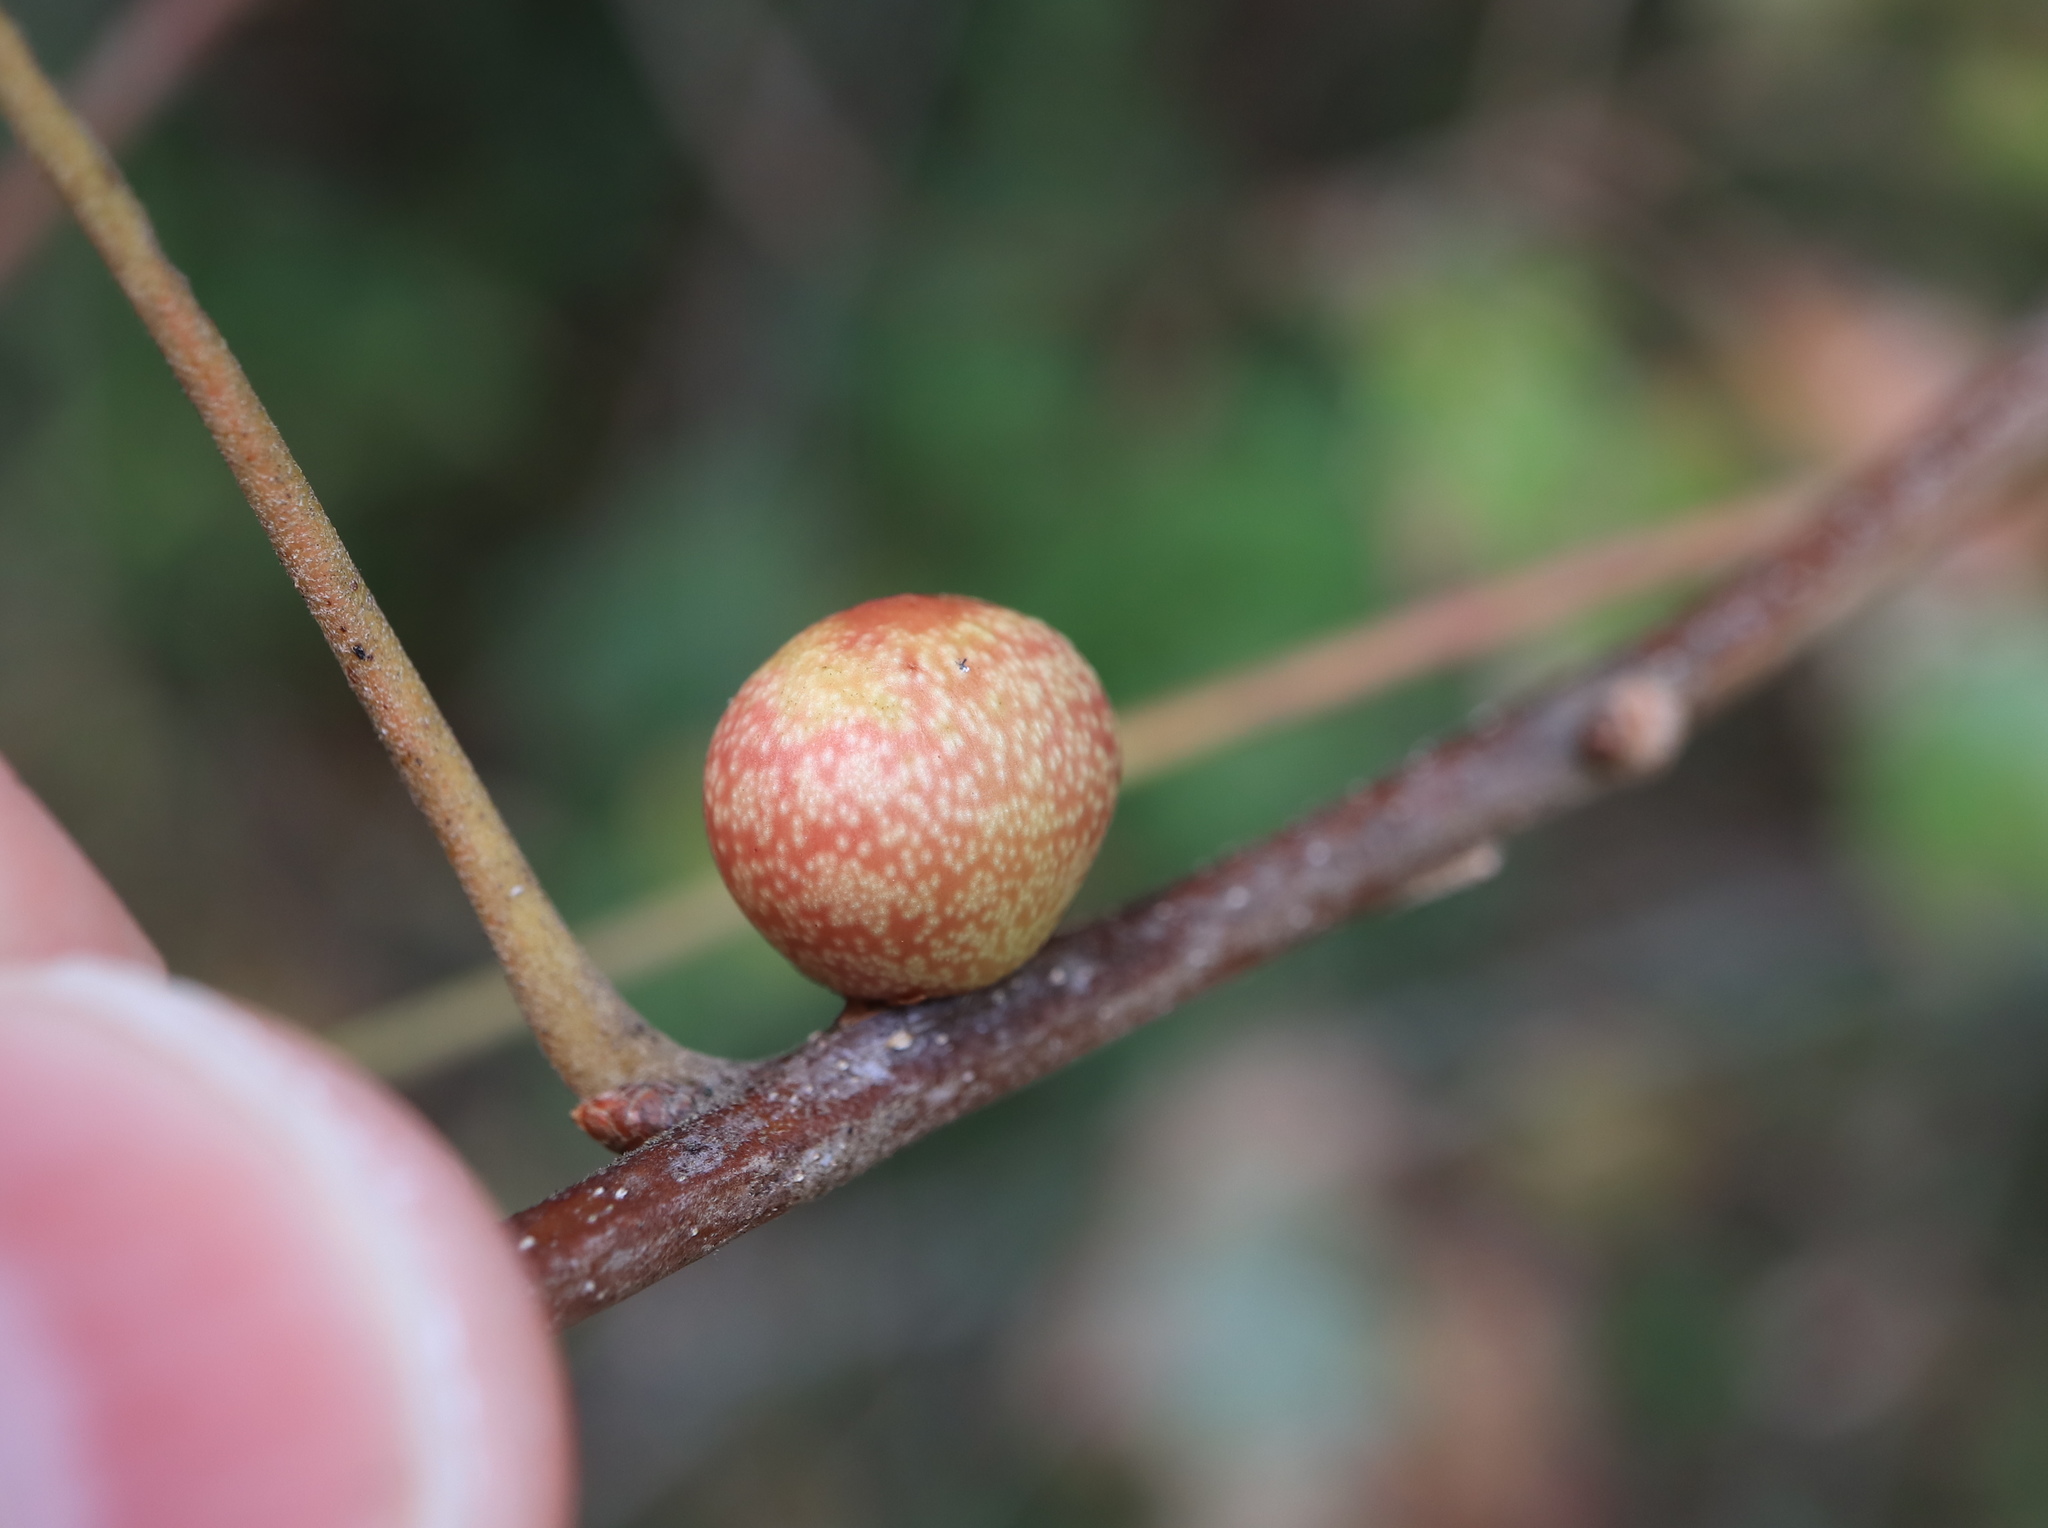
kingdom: Animalia
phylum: Arthropoda
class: Insecta
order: Hymenoptera
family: Cynipidae
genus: Kokkocynips
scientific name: Kokkocynips imbricariae
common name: Banded bullet gall wasp
